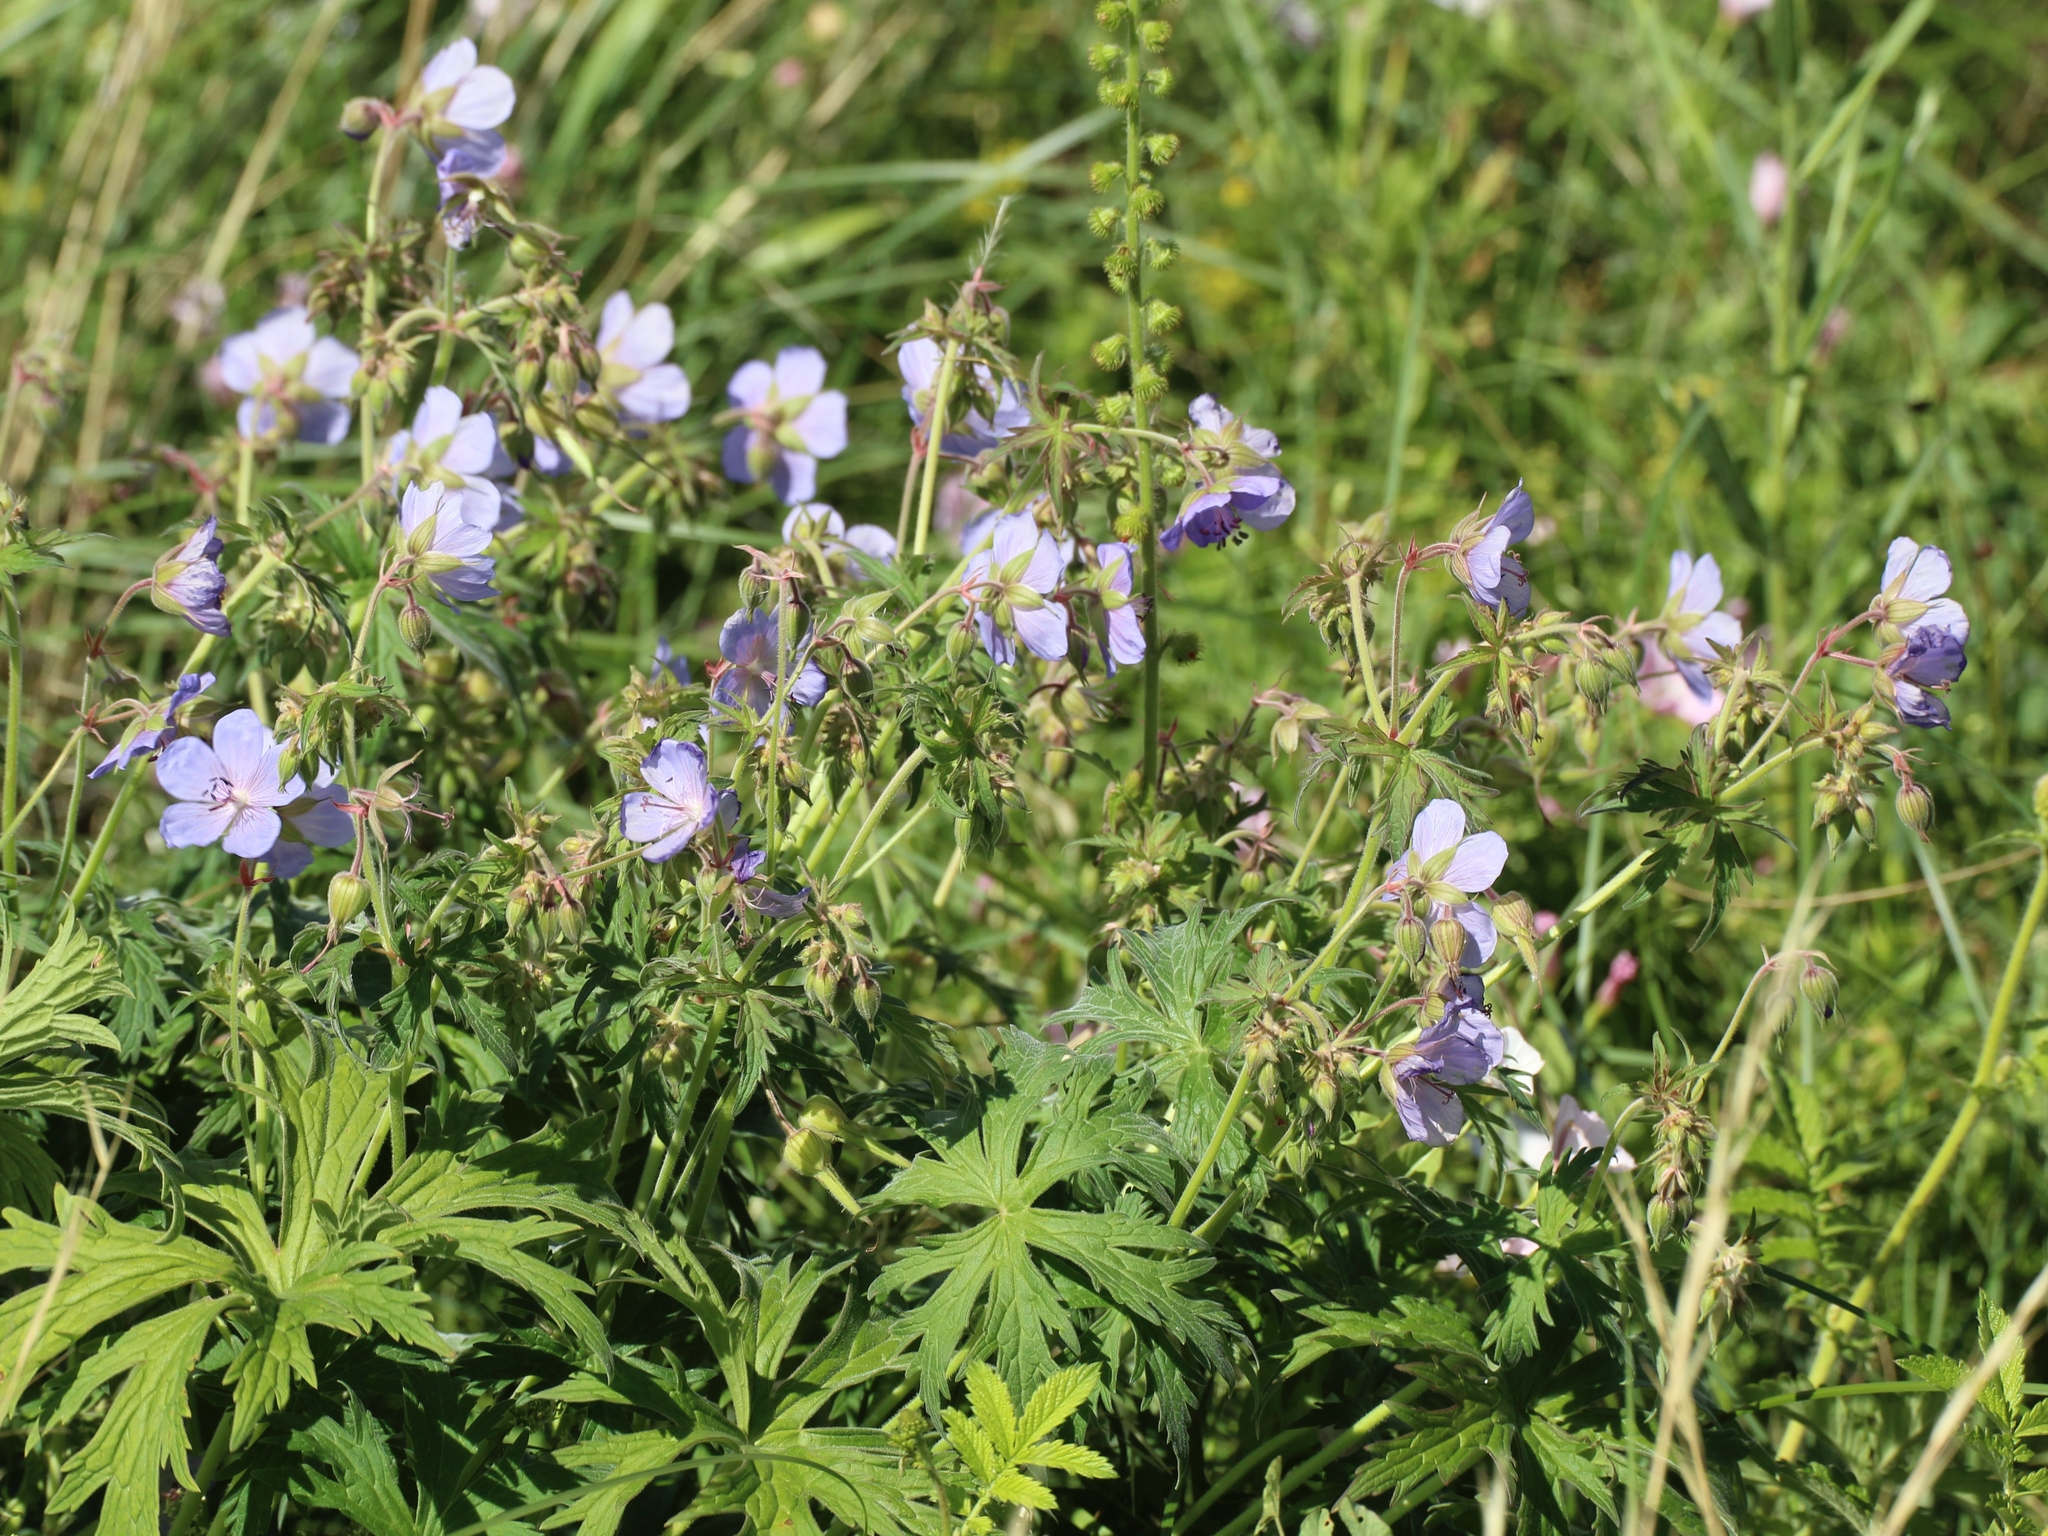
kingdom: Plantae
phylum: Tracheophyta
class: Magnoliopsida
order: Geraniales
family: Geraniaceae
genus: Geranium
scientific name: Geranium pratense
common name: Meadow crane's-bill
